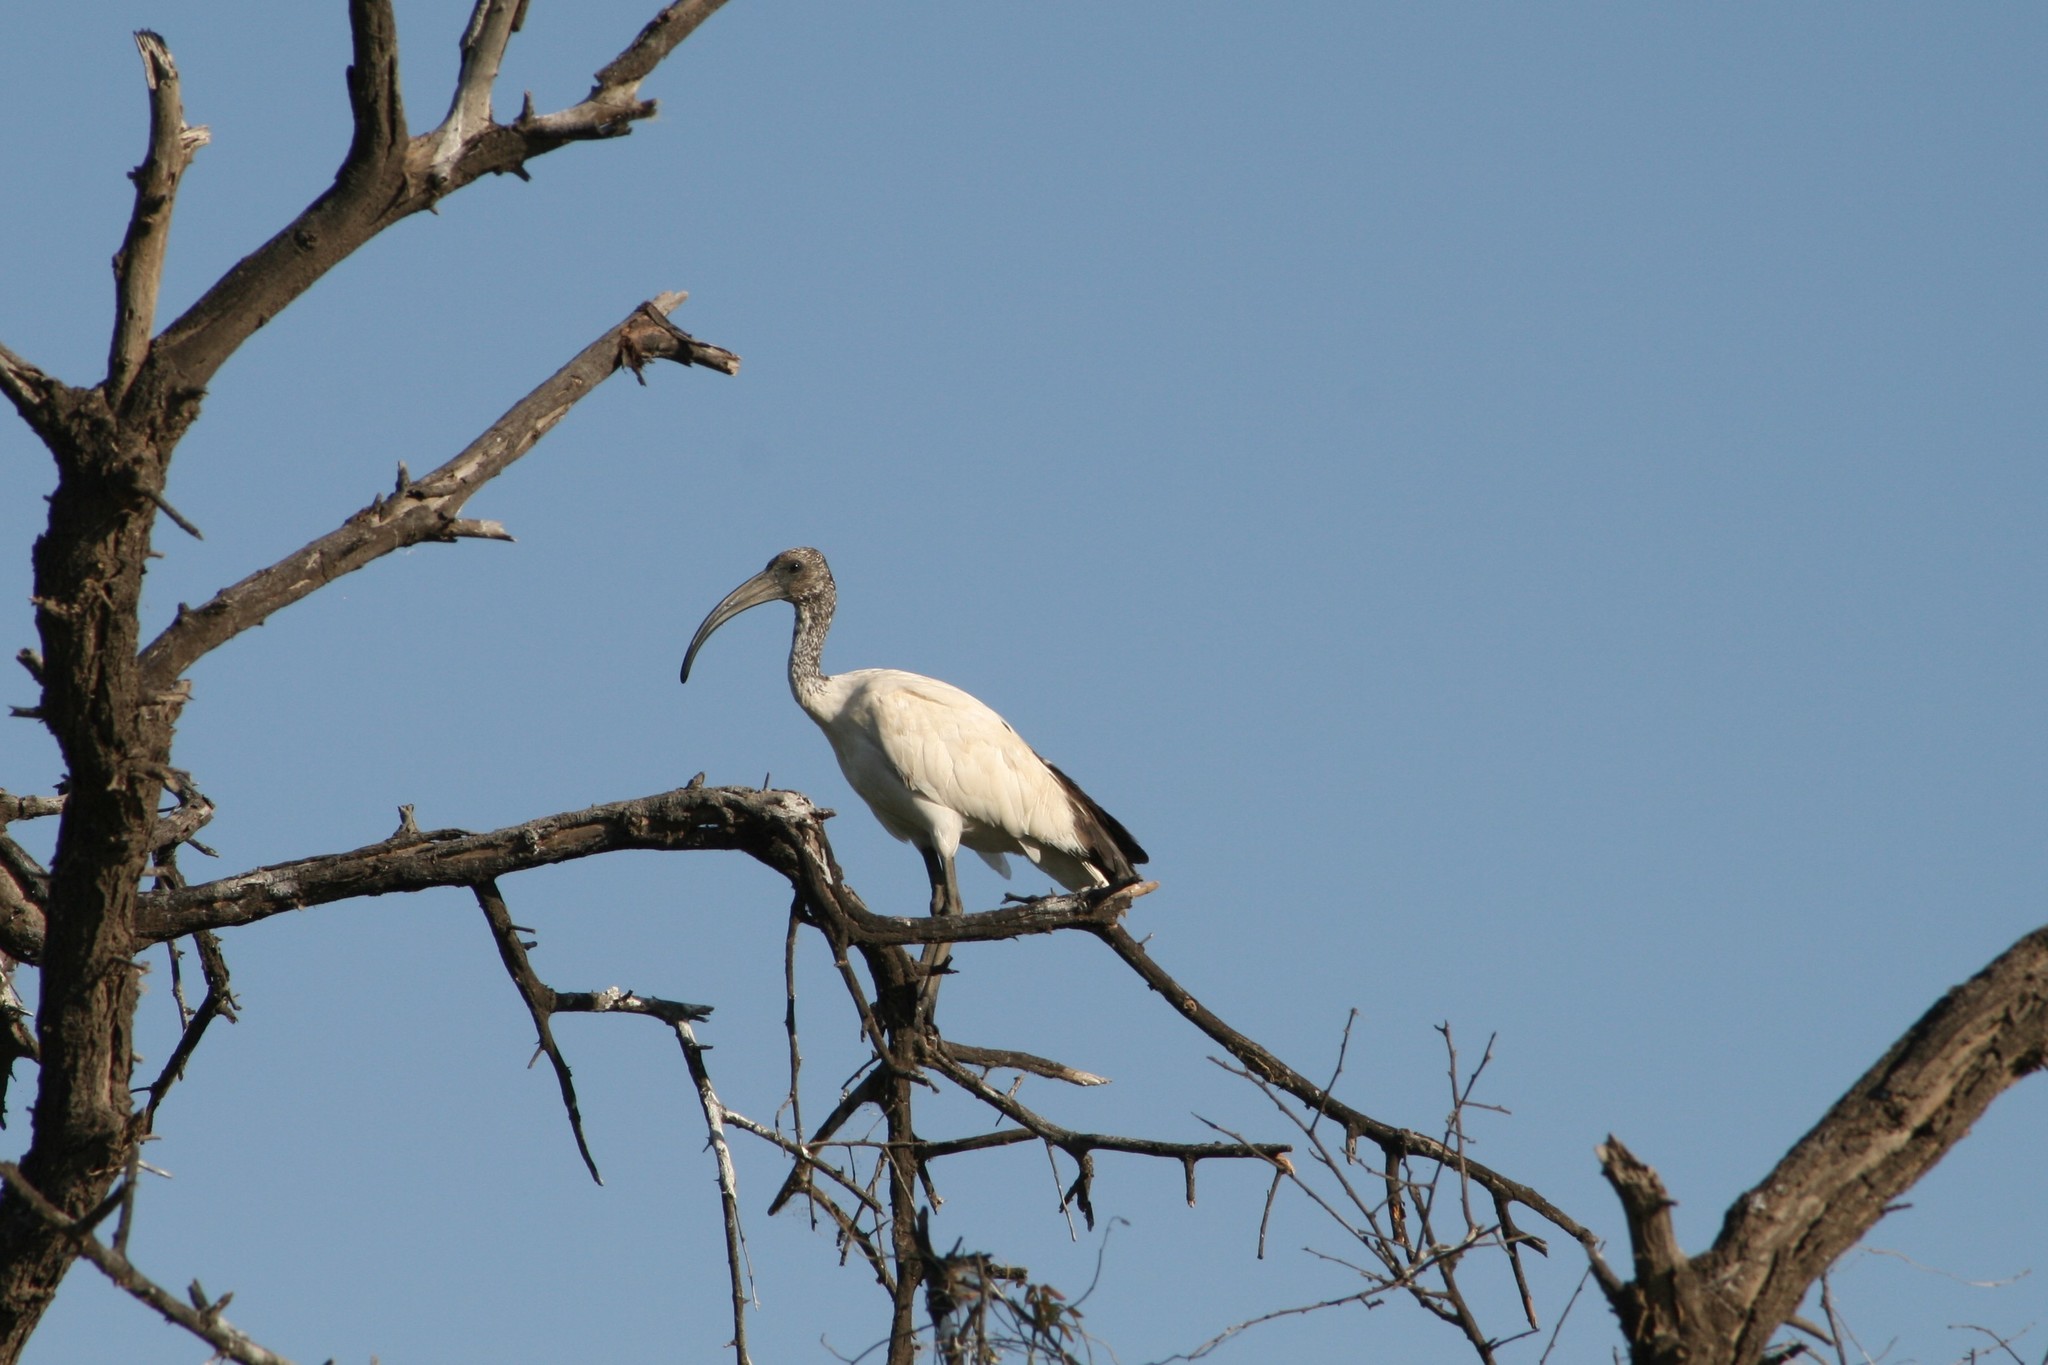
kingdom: Animalia
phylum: Chordata
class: Aves
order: Pelecaniformes
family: Threskiornithidae
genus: Threskiornis
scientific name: Threskiornis aethiopicus
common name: Sacred ibis
